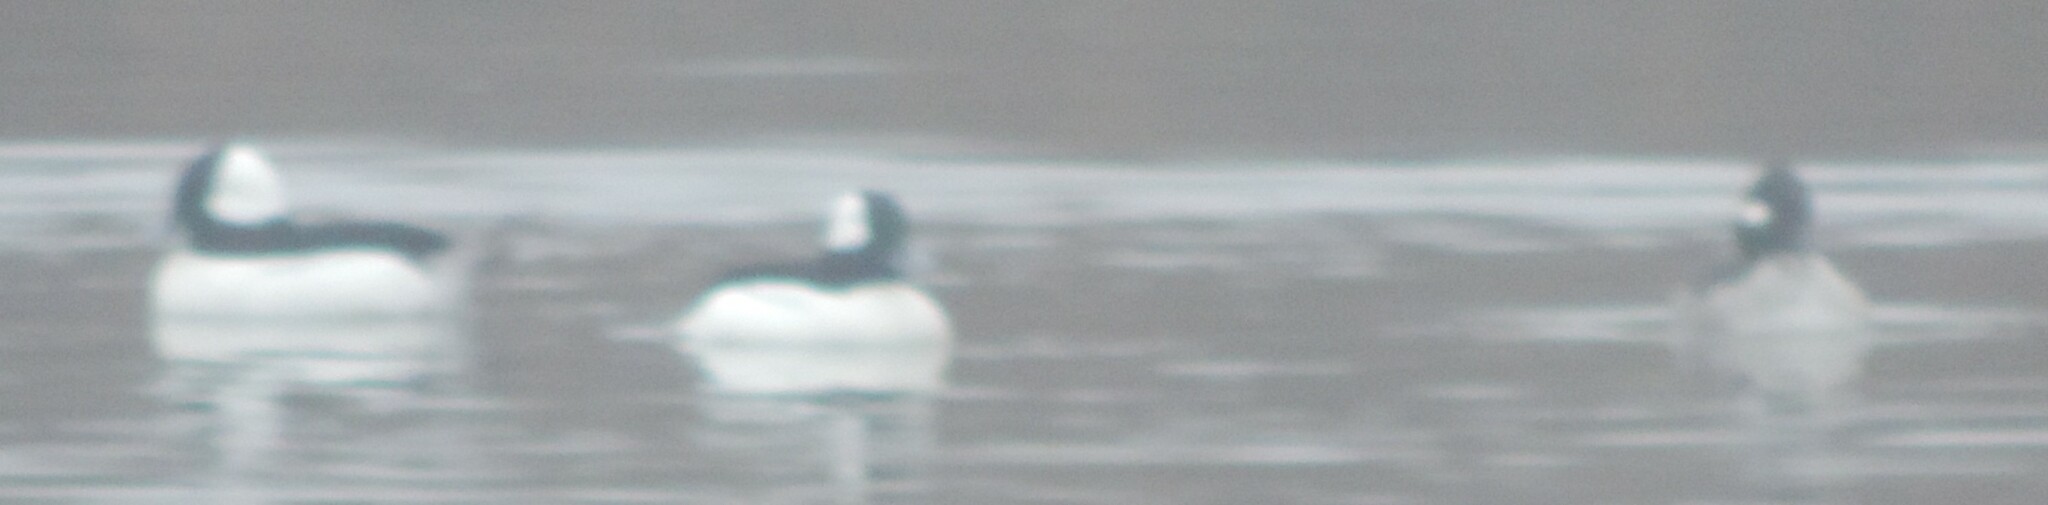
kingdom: Animalia
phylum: Chordata
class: Aves
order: Anseriformes
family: Anatidae
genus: Bucephala
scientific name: Bucephala albeola
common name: Bufflehead
